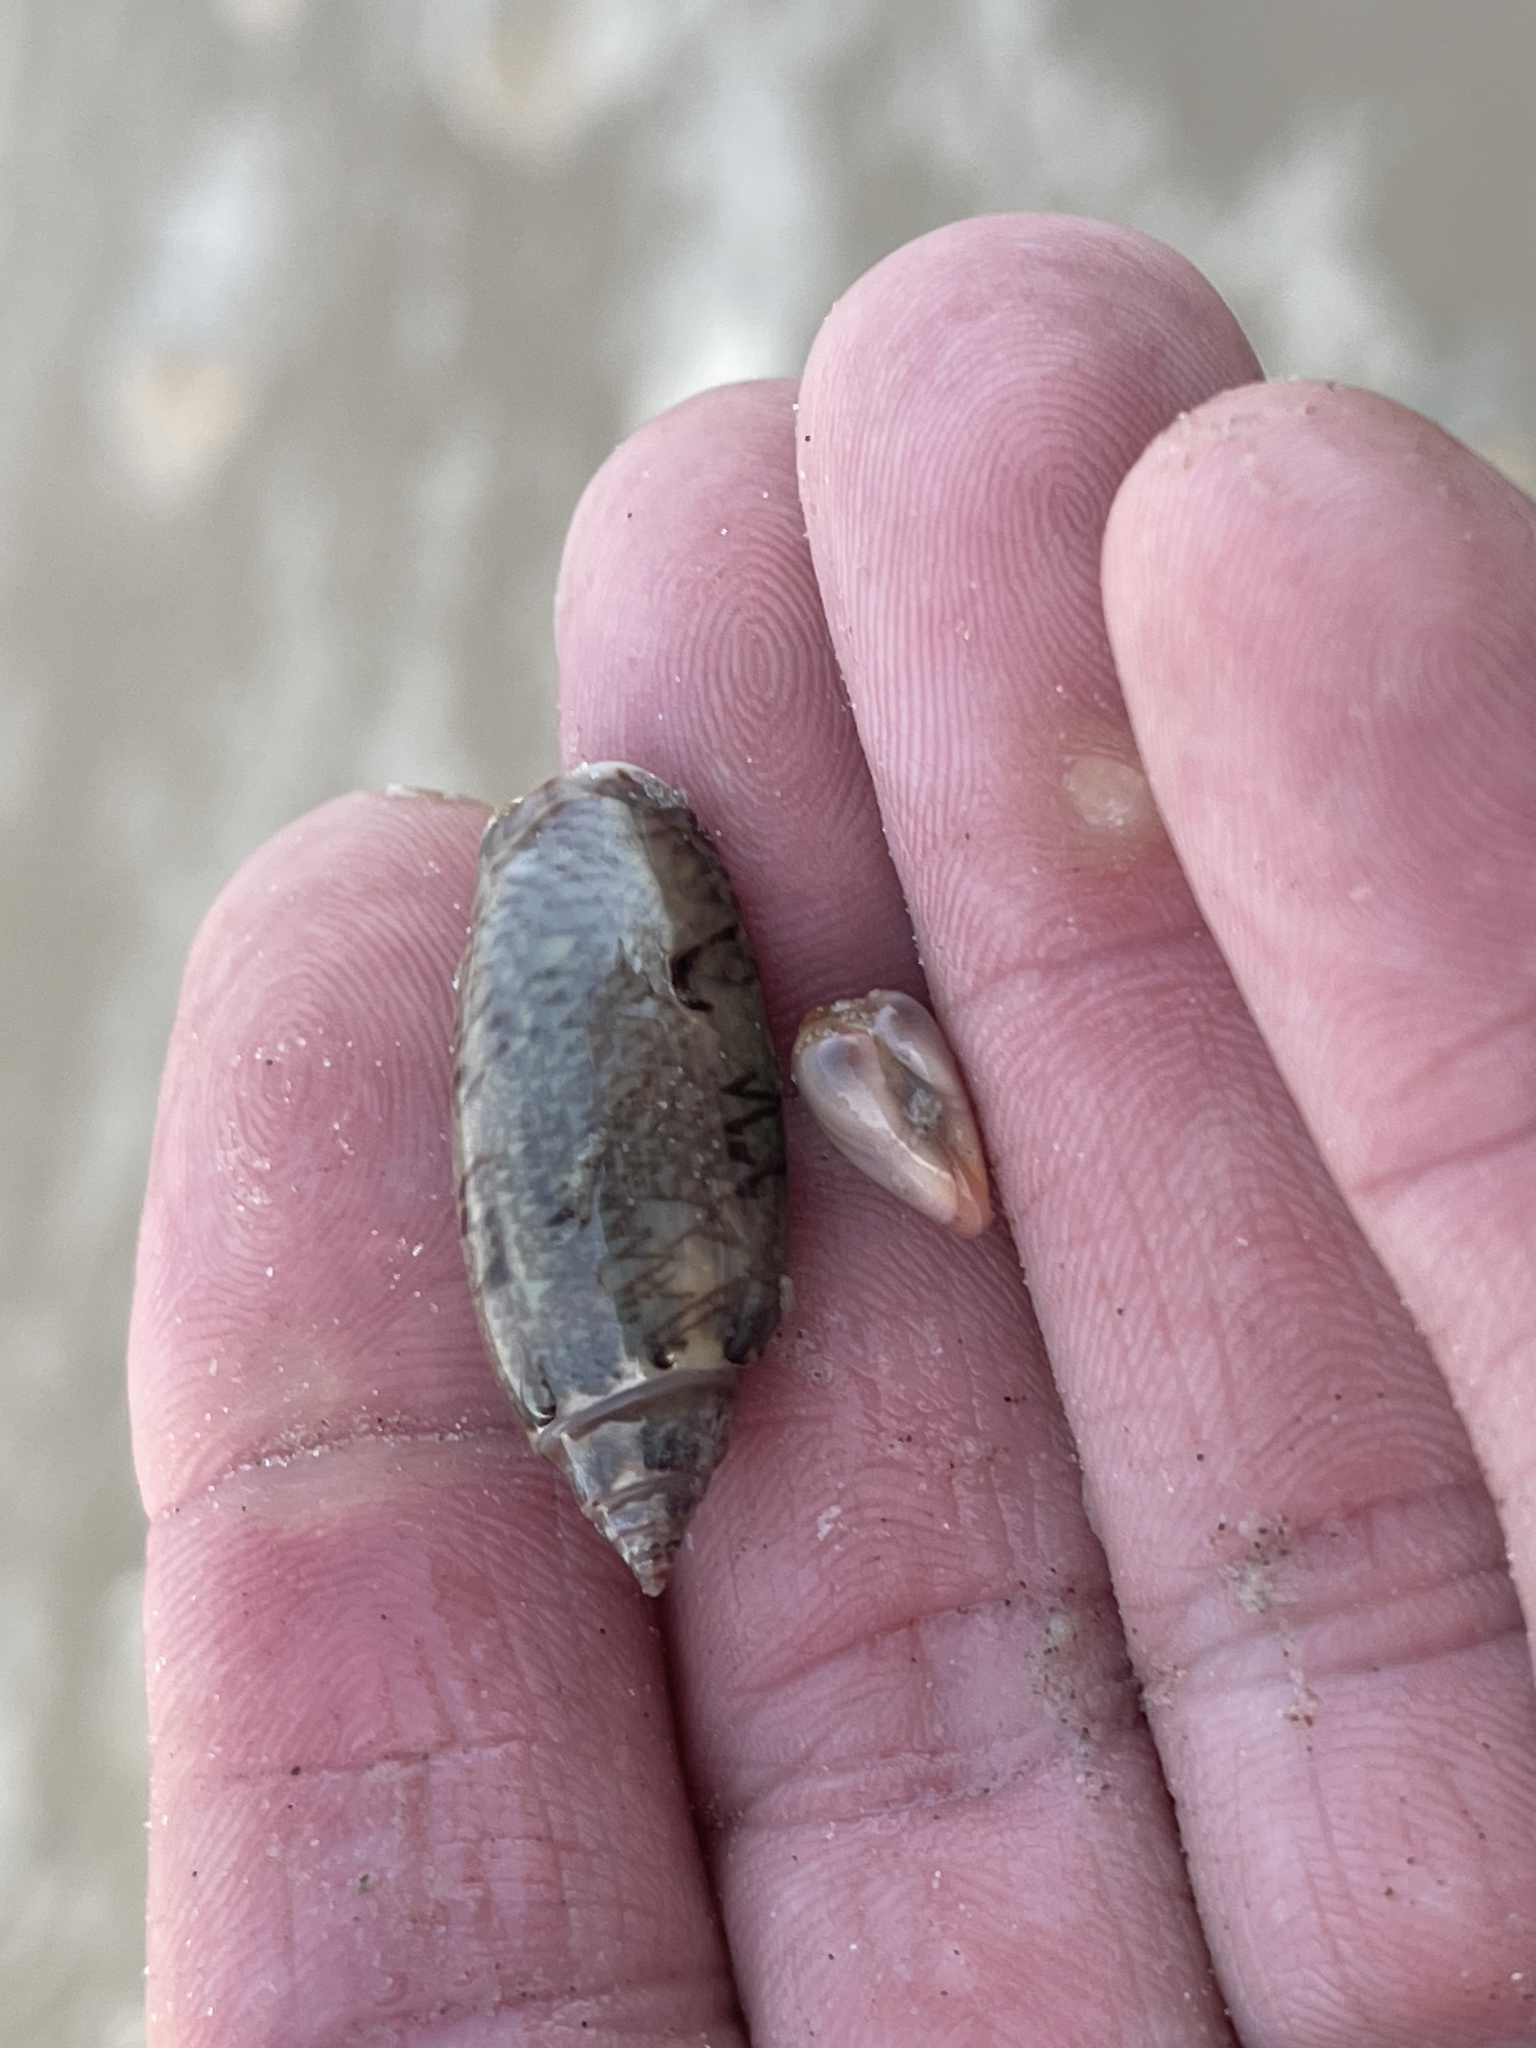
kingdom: Animalia
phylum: Mollusca
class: Gastropoda
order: Neogastropoda
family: Olividae
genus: Oliva
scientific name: Oliva sayana
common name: Lettered olive
